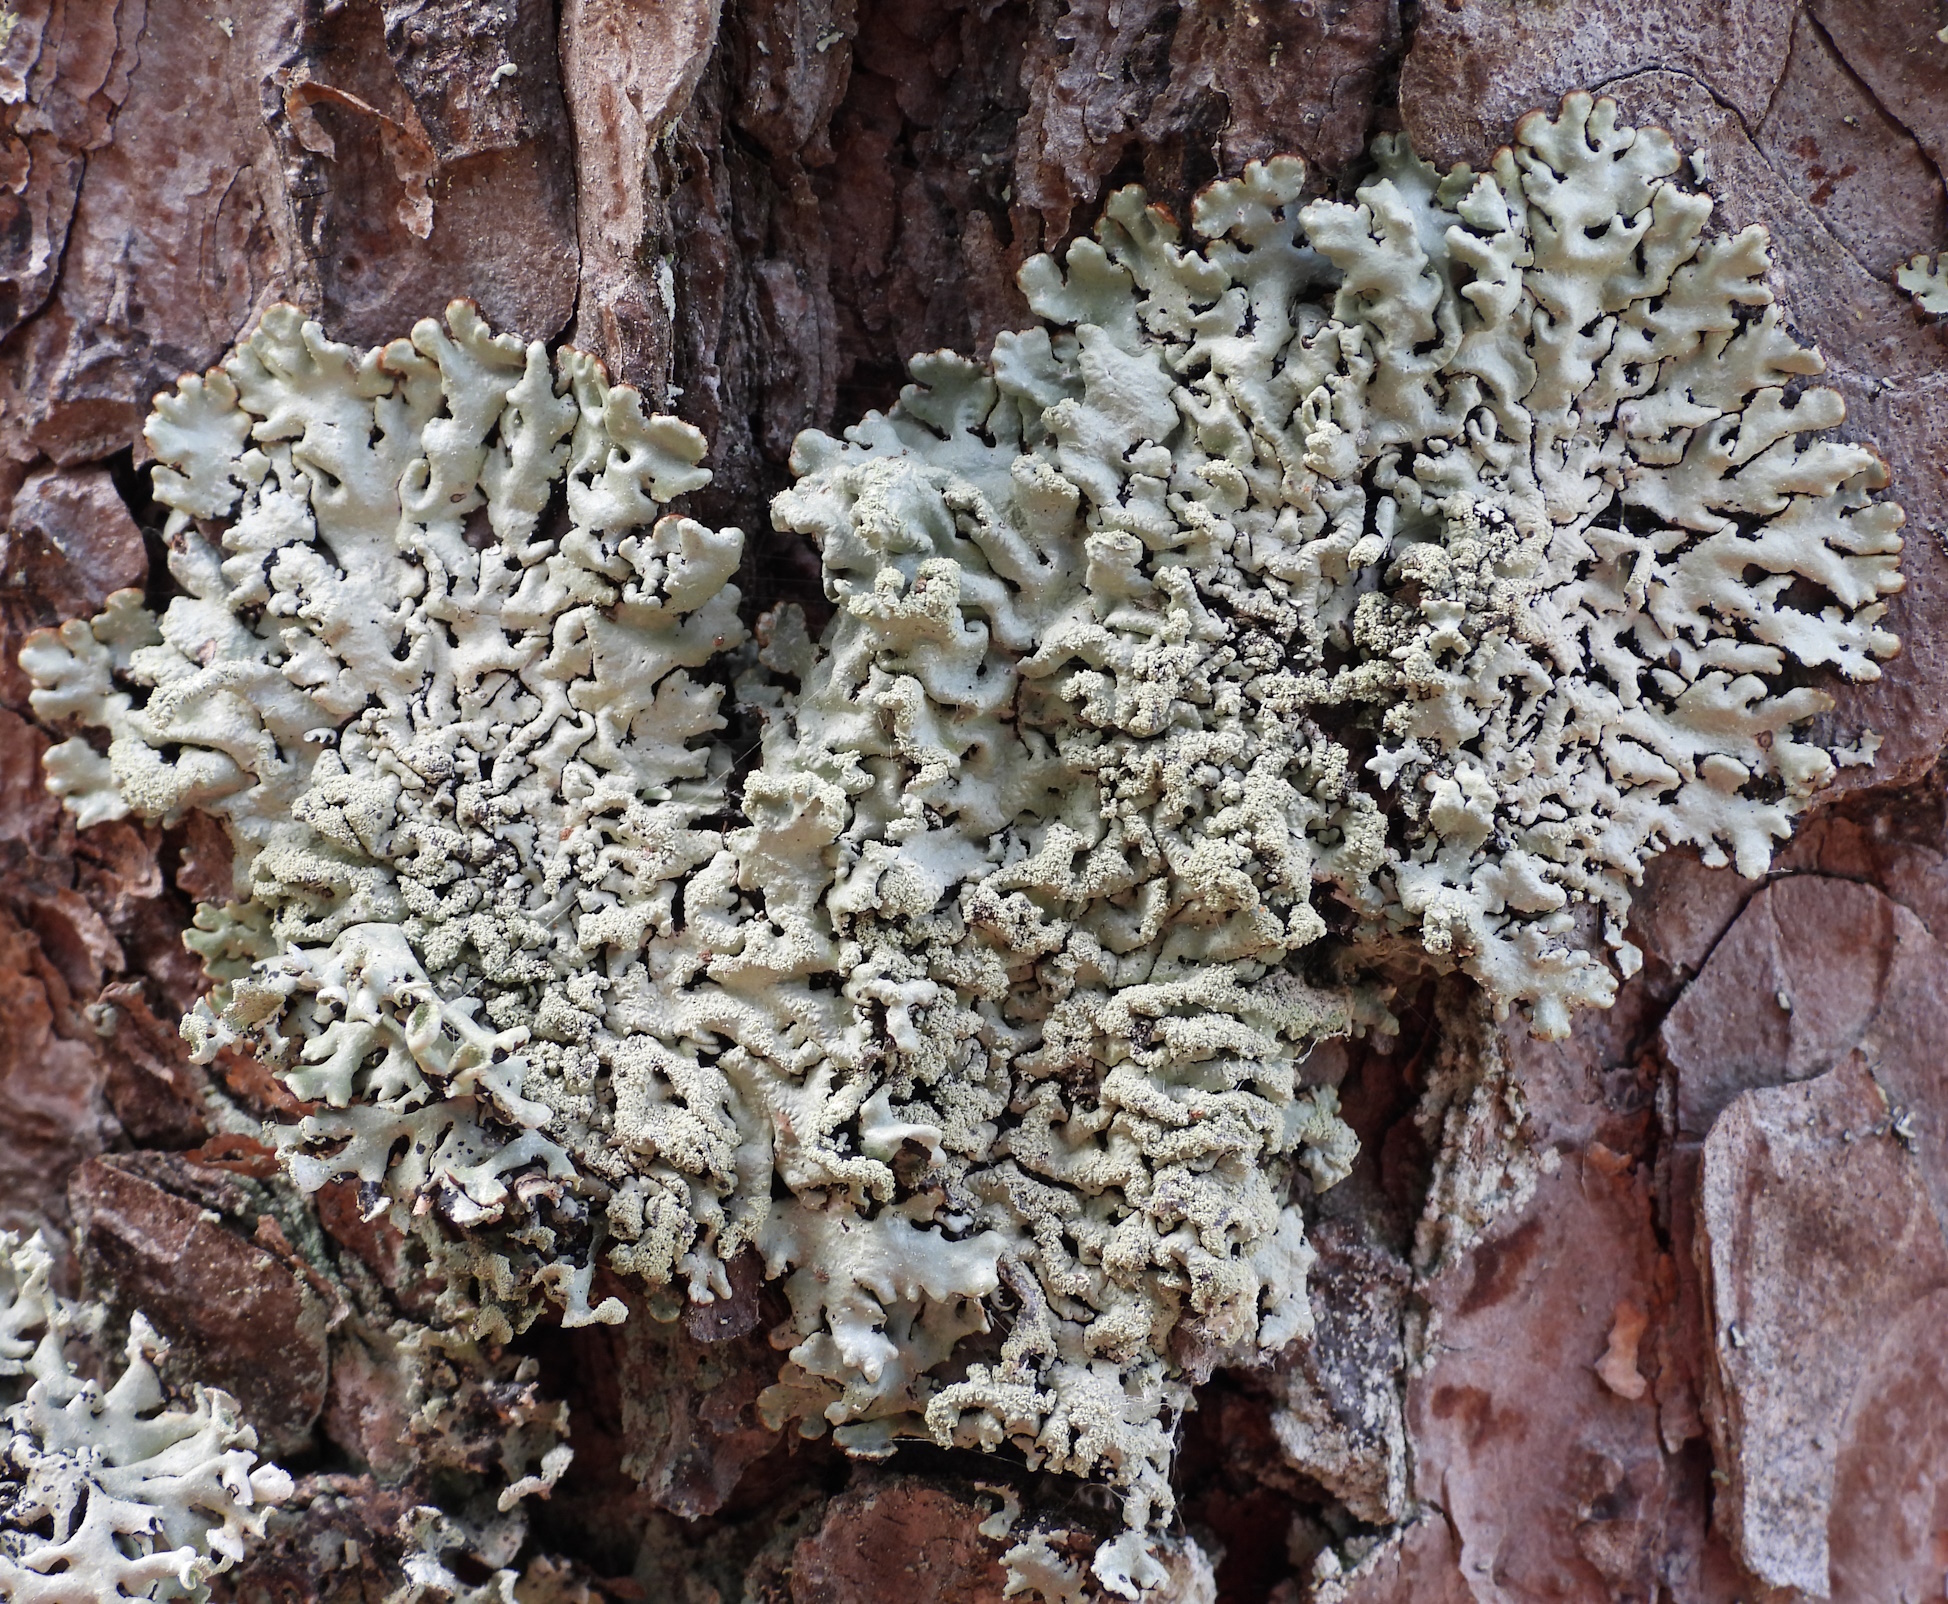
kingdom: Fungi
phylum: Ascomycota
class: Lecanoromycetes
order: Lecanorales
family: Parmeliaceae
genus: Hypogymnia
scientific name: Hypogymnia farinacea
